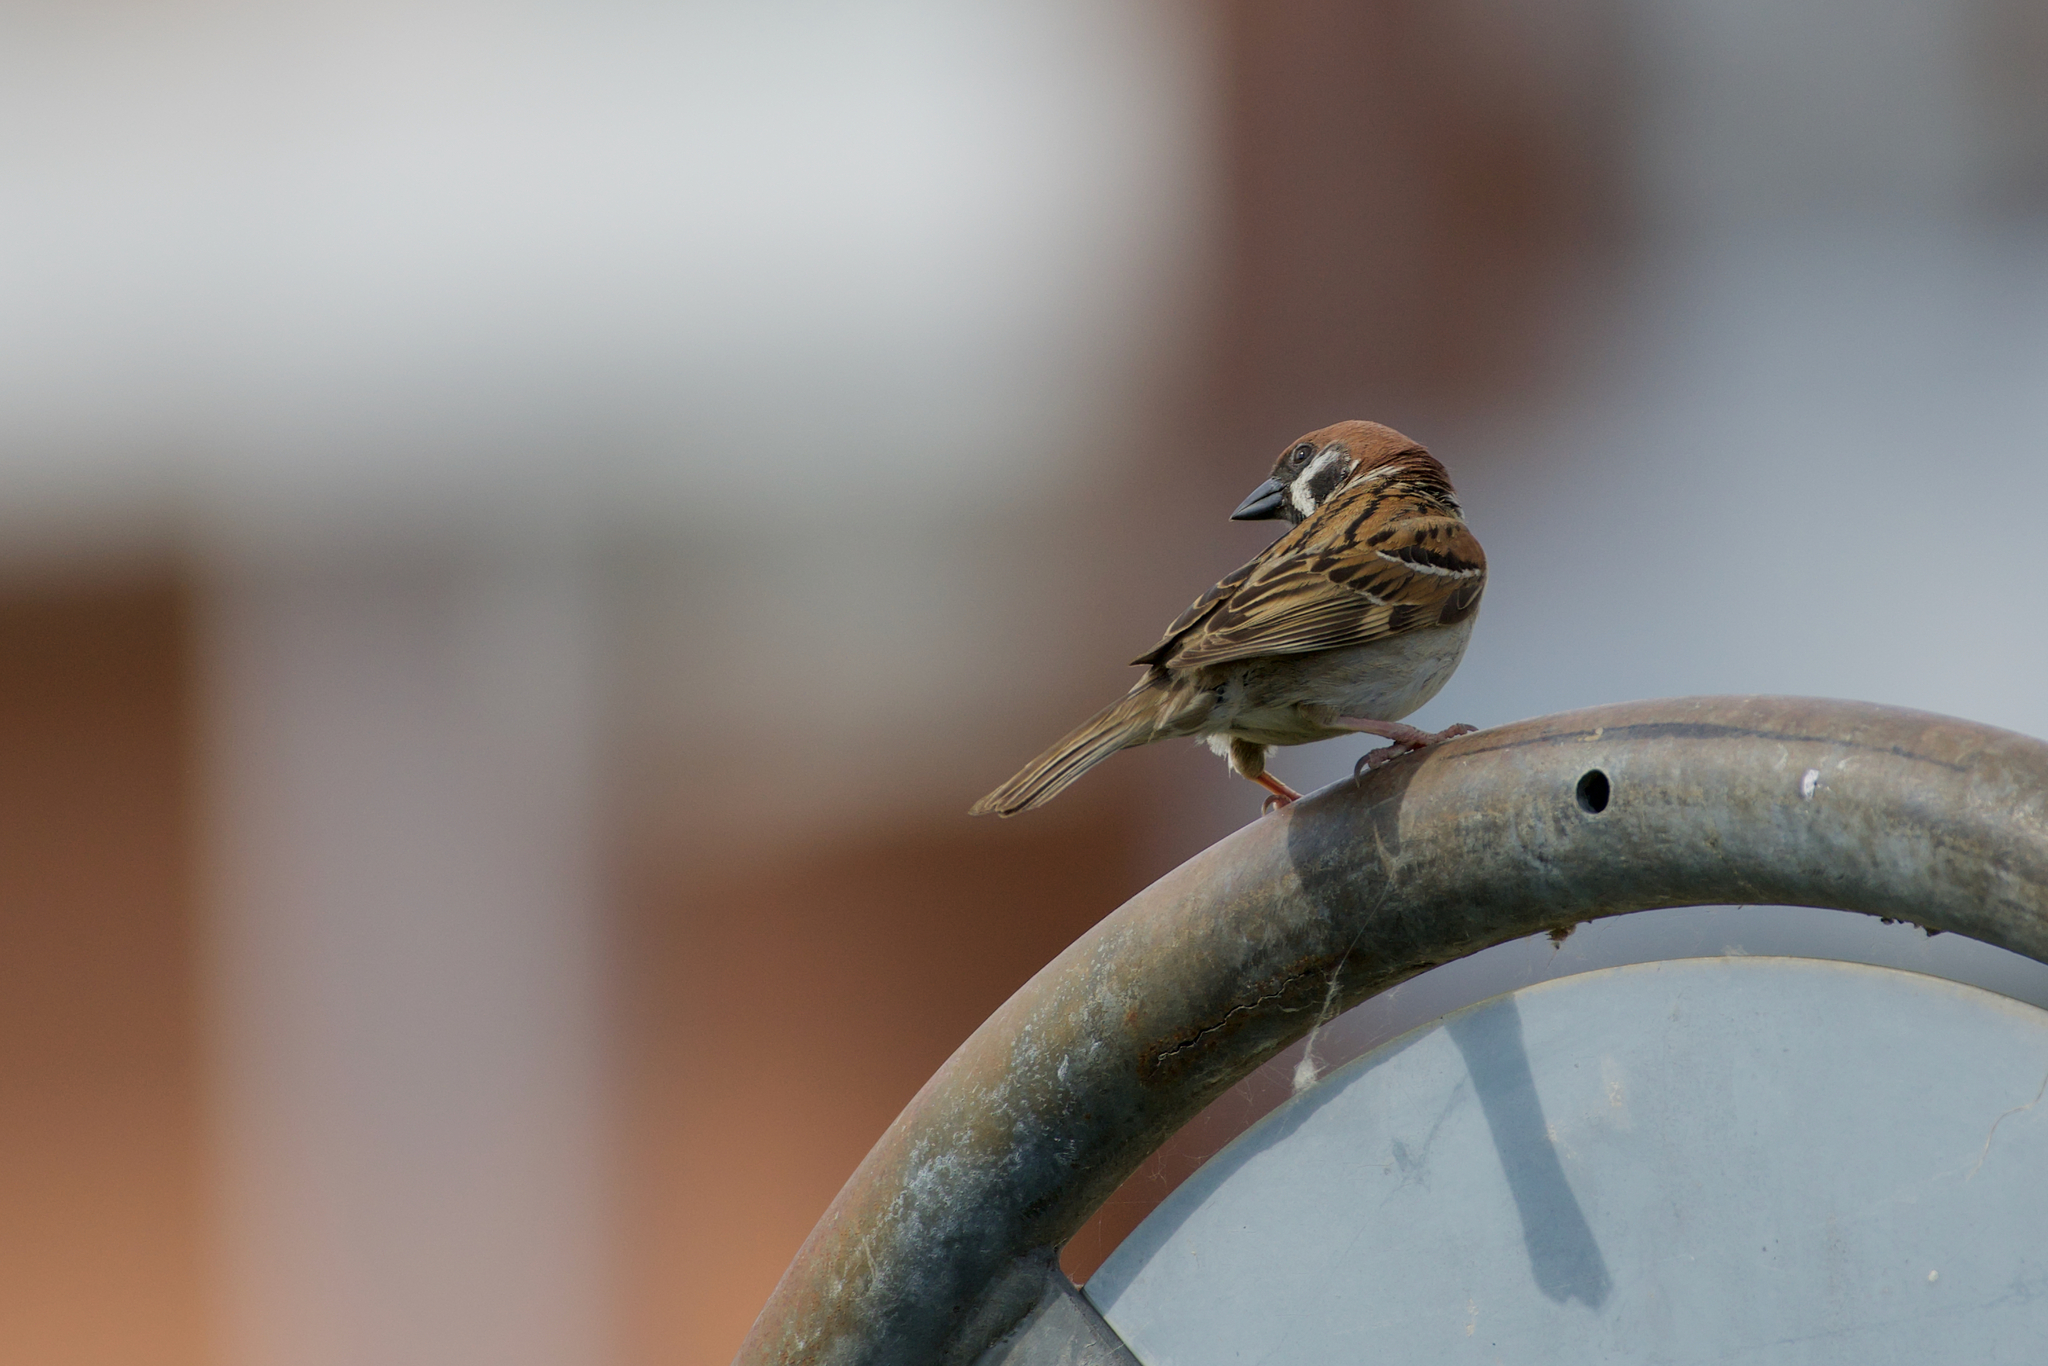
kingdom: Animalia
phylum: Chordata
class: Aves
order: Passeriformes
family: Passeridae
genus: Passer
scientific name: Passer montanus
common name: Eurasian tree sparrow
